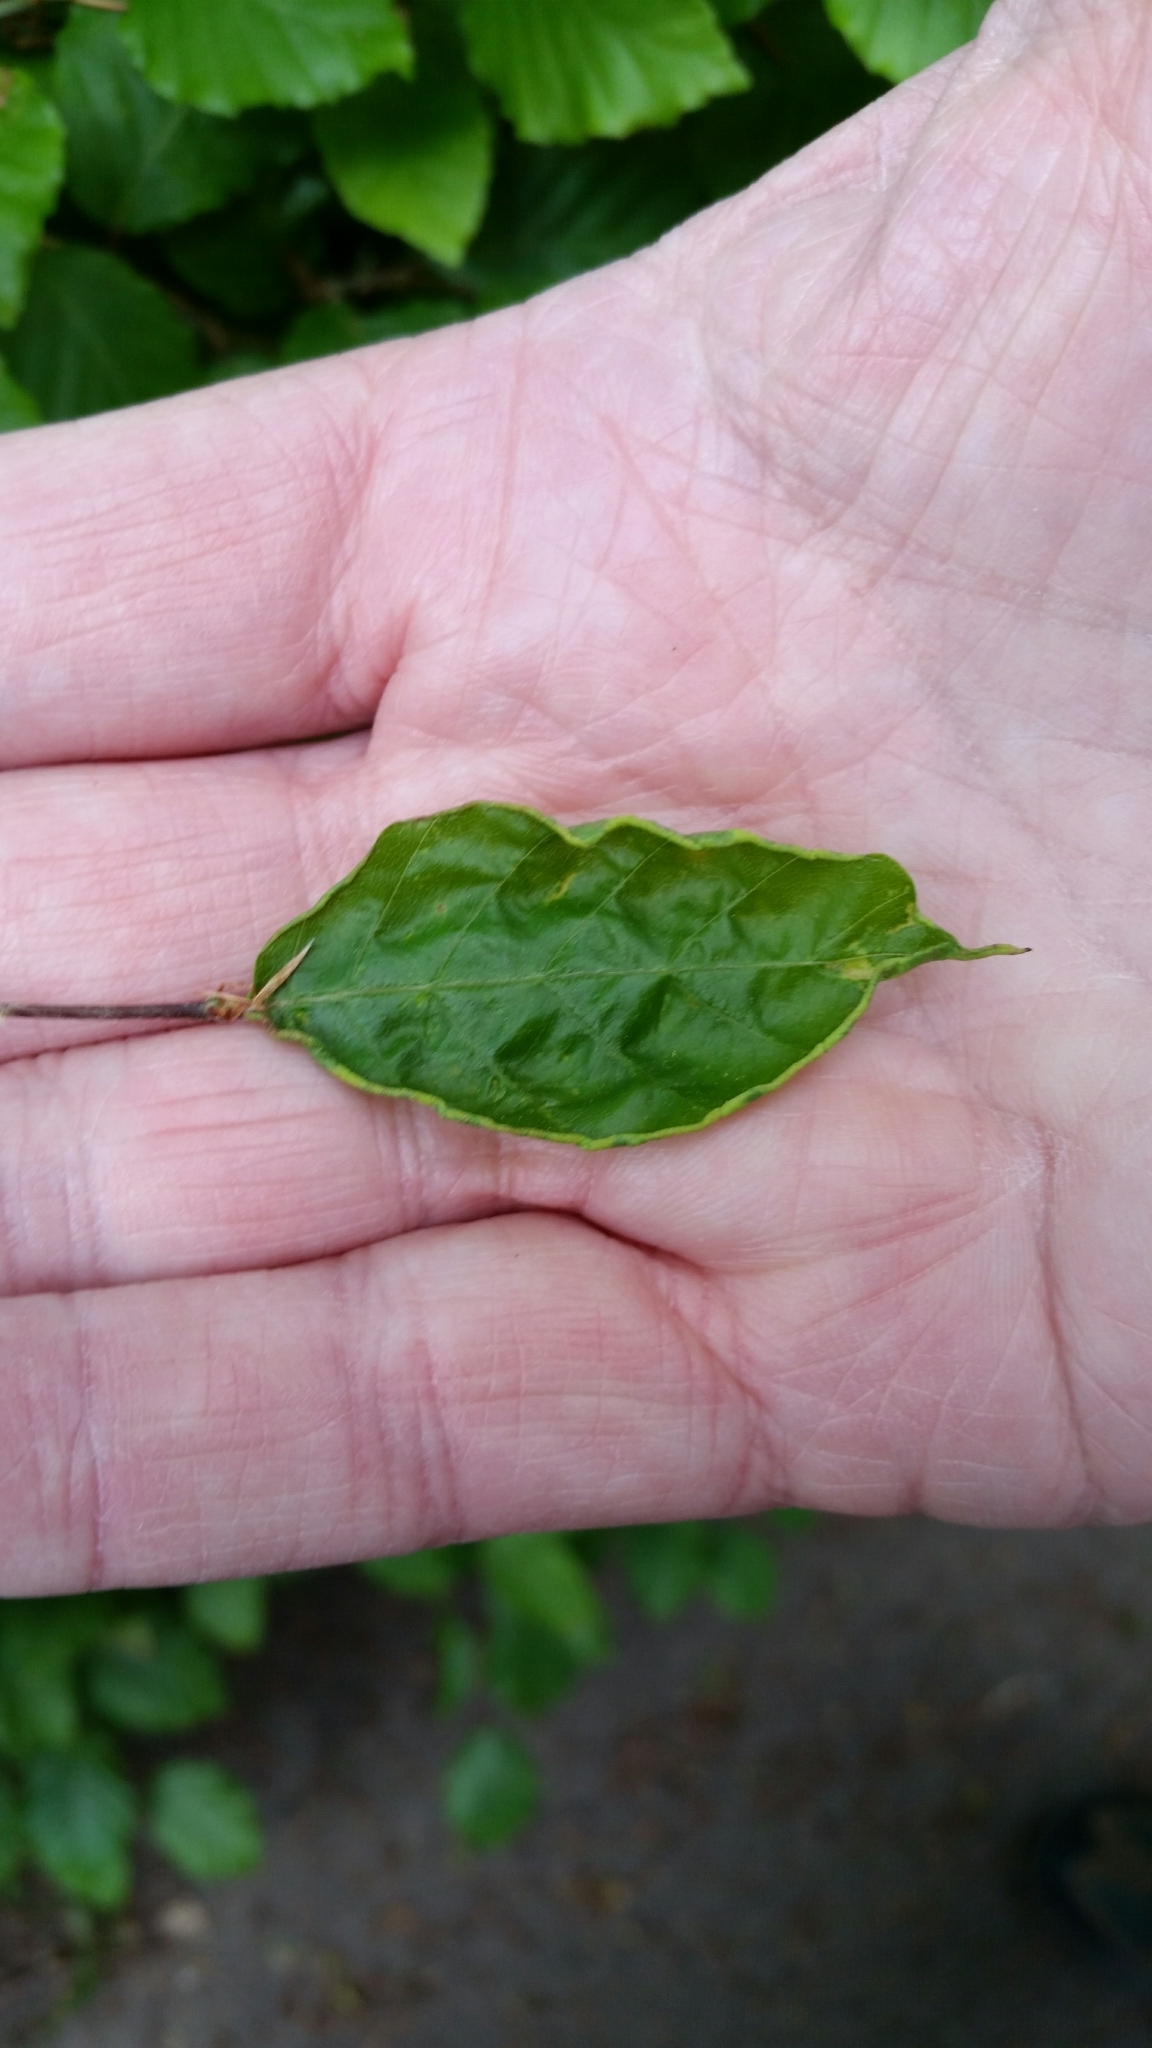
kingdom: Animalia
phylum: Arthropoda
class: Arachnida
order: Trombidiformes
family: Eriophyidae
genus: Acalitus
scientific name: Acalitus stenaspis
